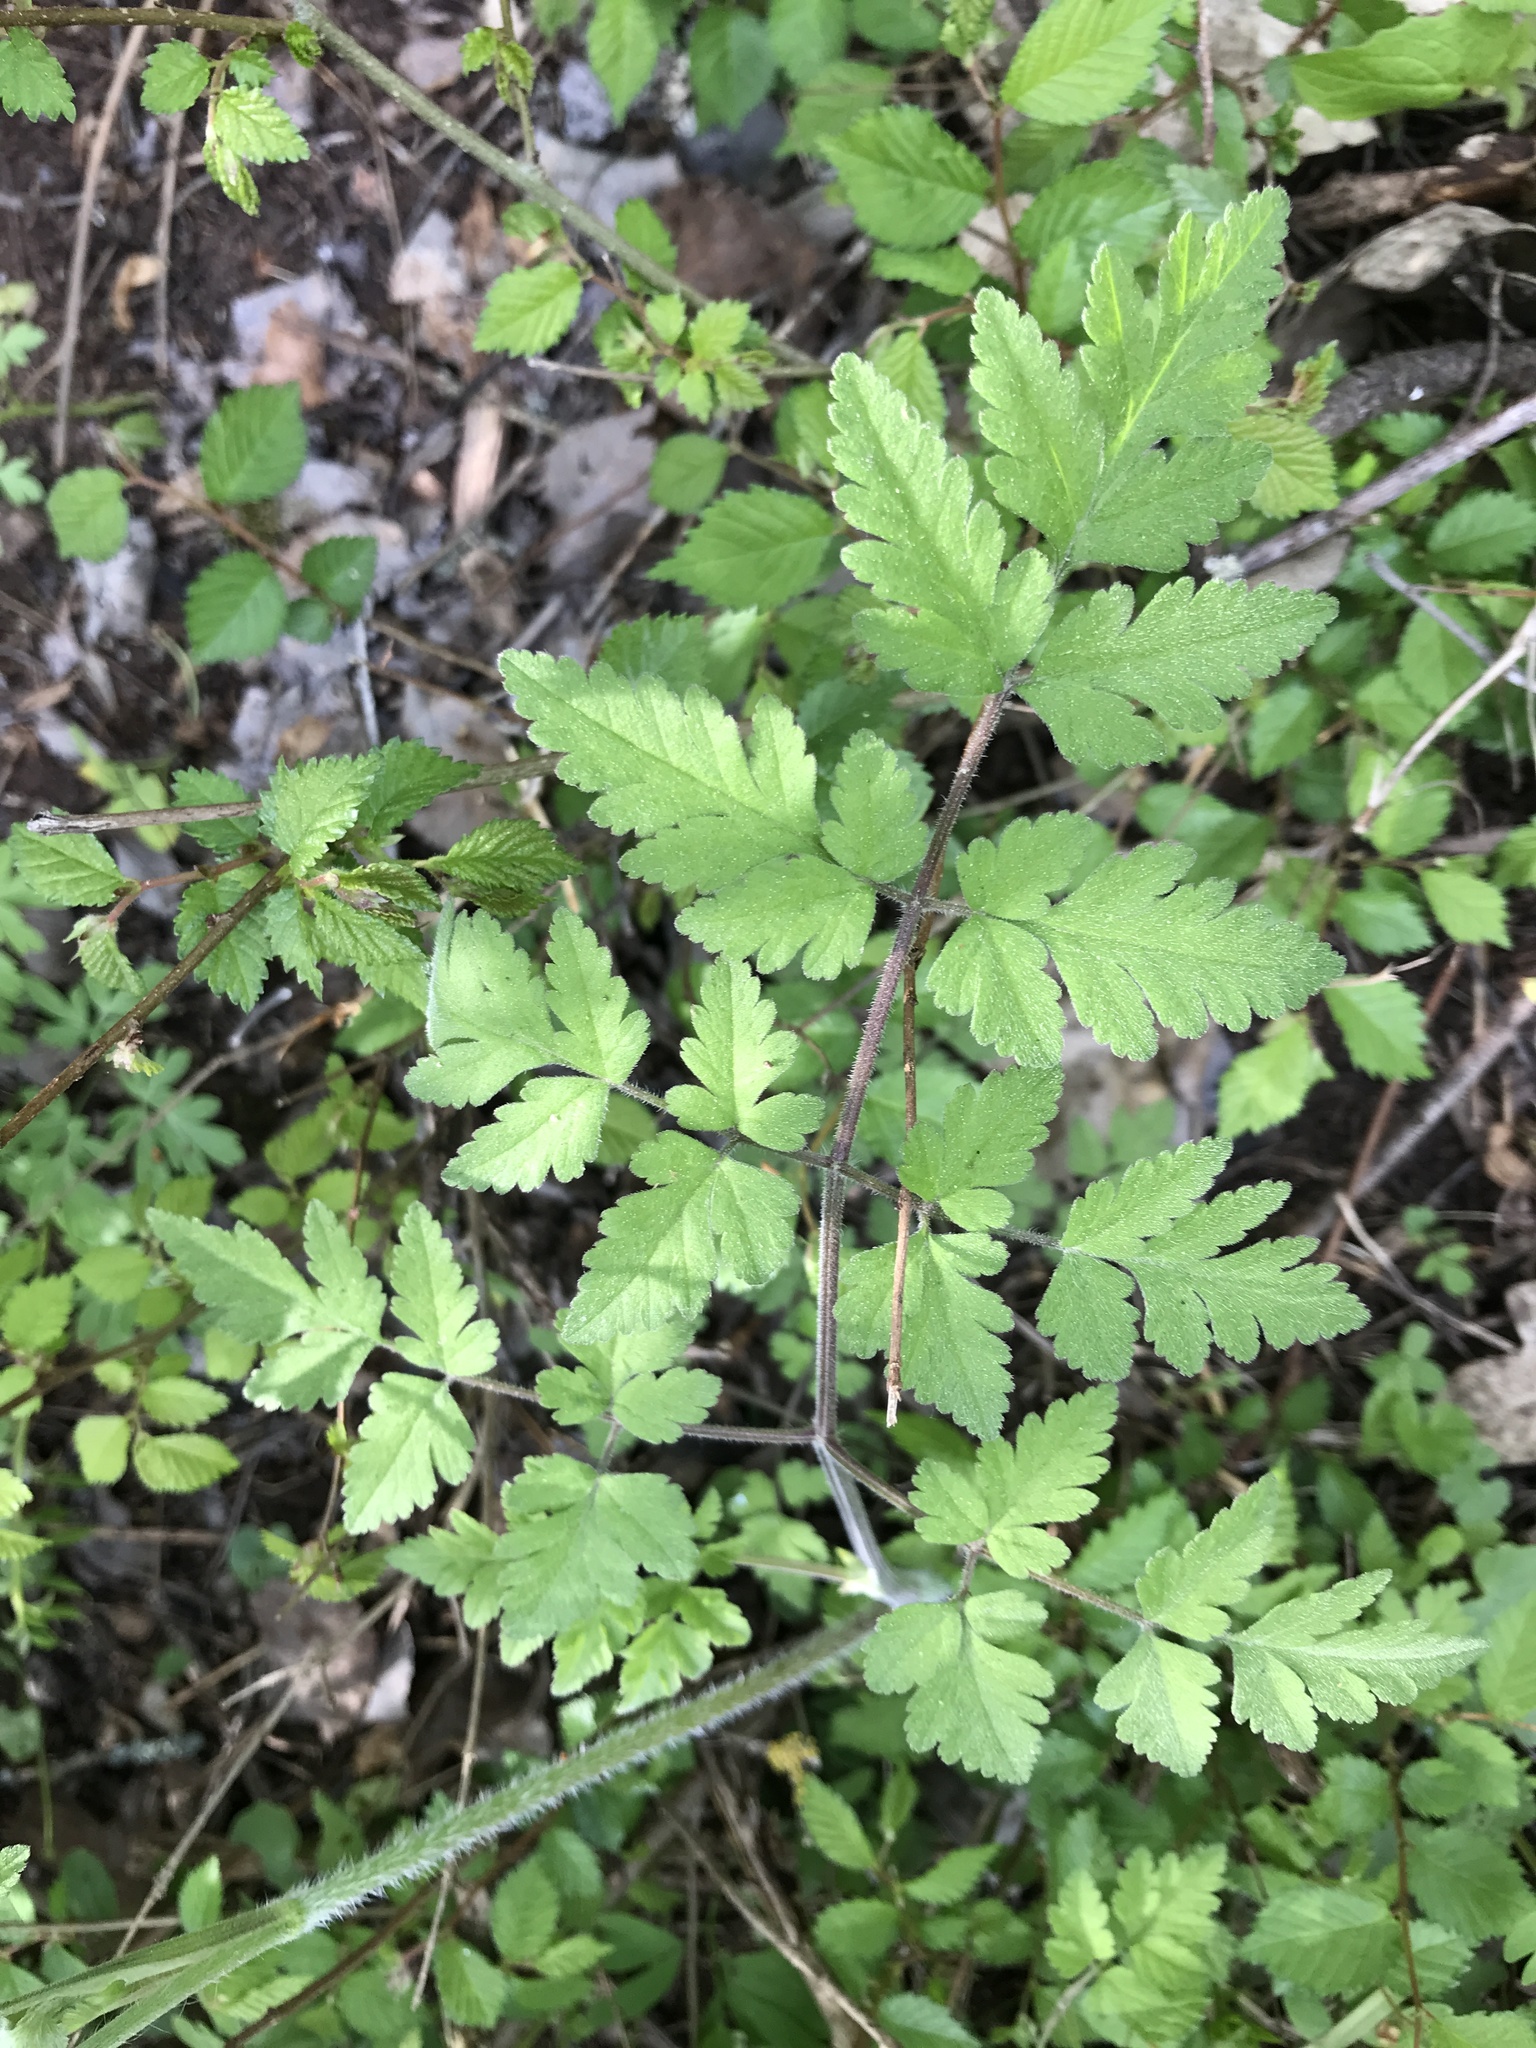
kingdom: Plantae
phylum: Tracheophyta
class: Magnoliopsida
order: Apiales
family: Apiaceae
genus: Chaerophyllum
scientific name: Chaerophyllum temulum
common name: Rough chervil
